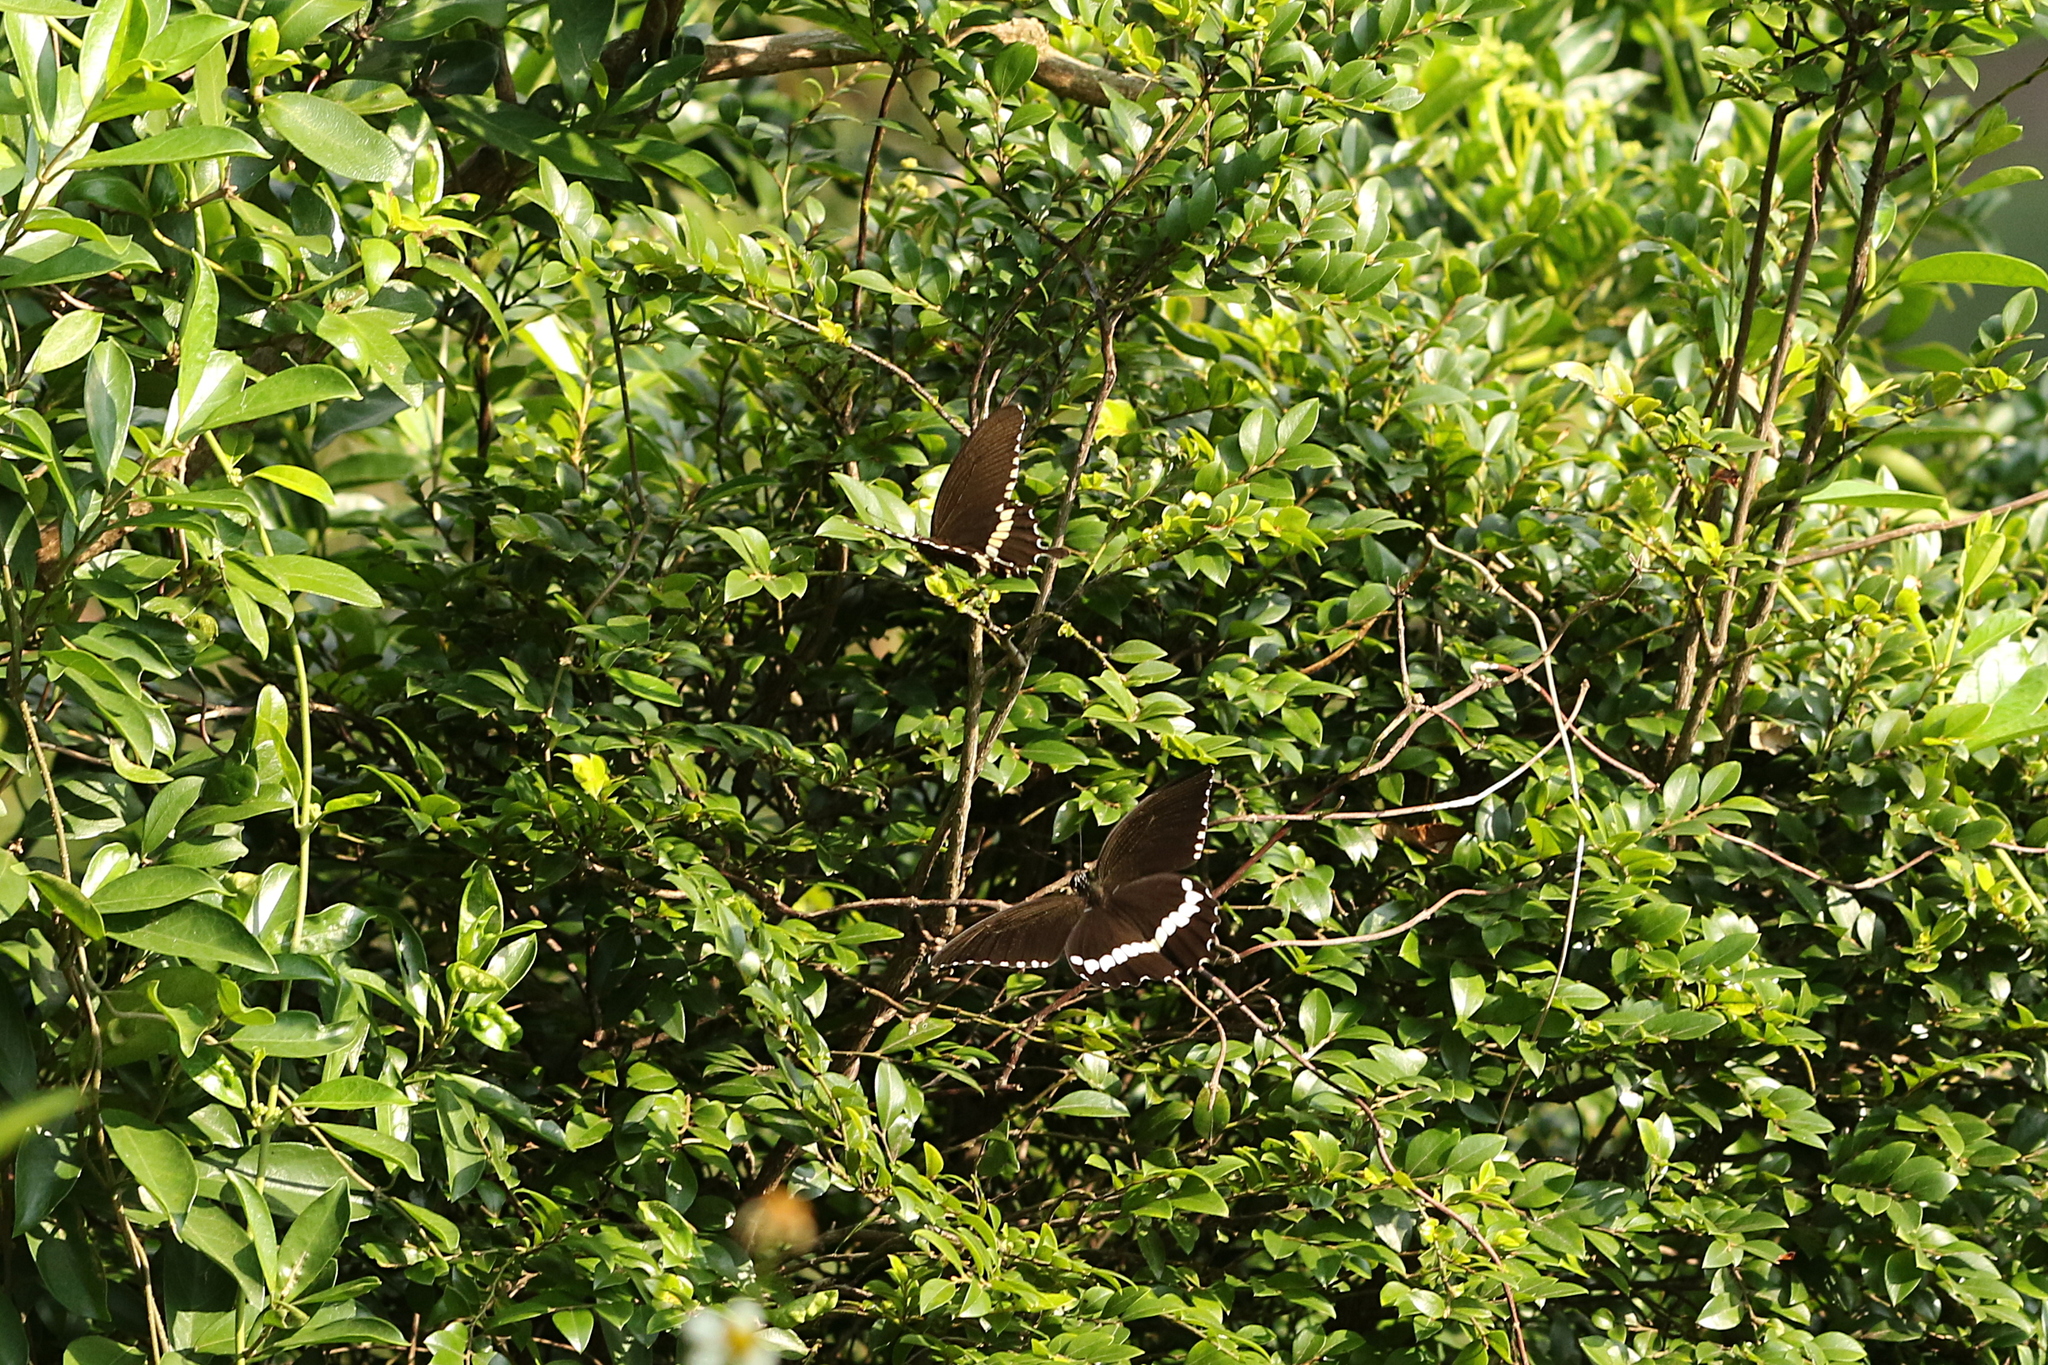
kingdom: Animalia
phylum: Arthropoda
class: Insecta
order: Lepidoptera
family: Papilionidae
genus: Papilio
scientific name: Papilio polytes
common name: Common mormon
